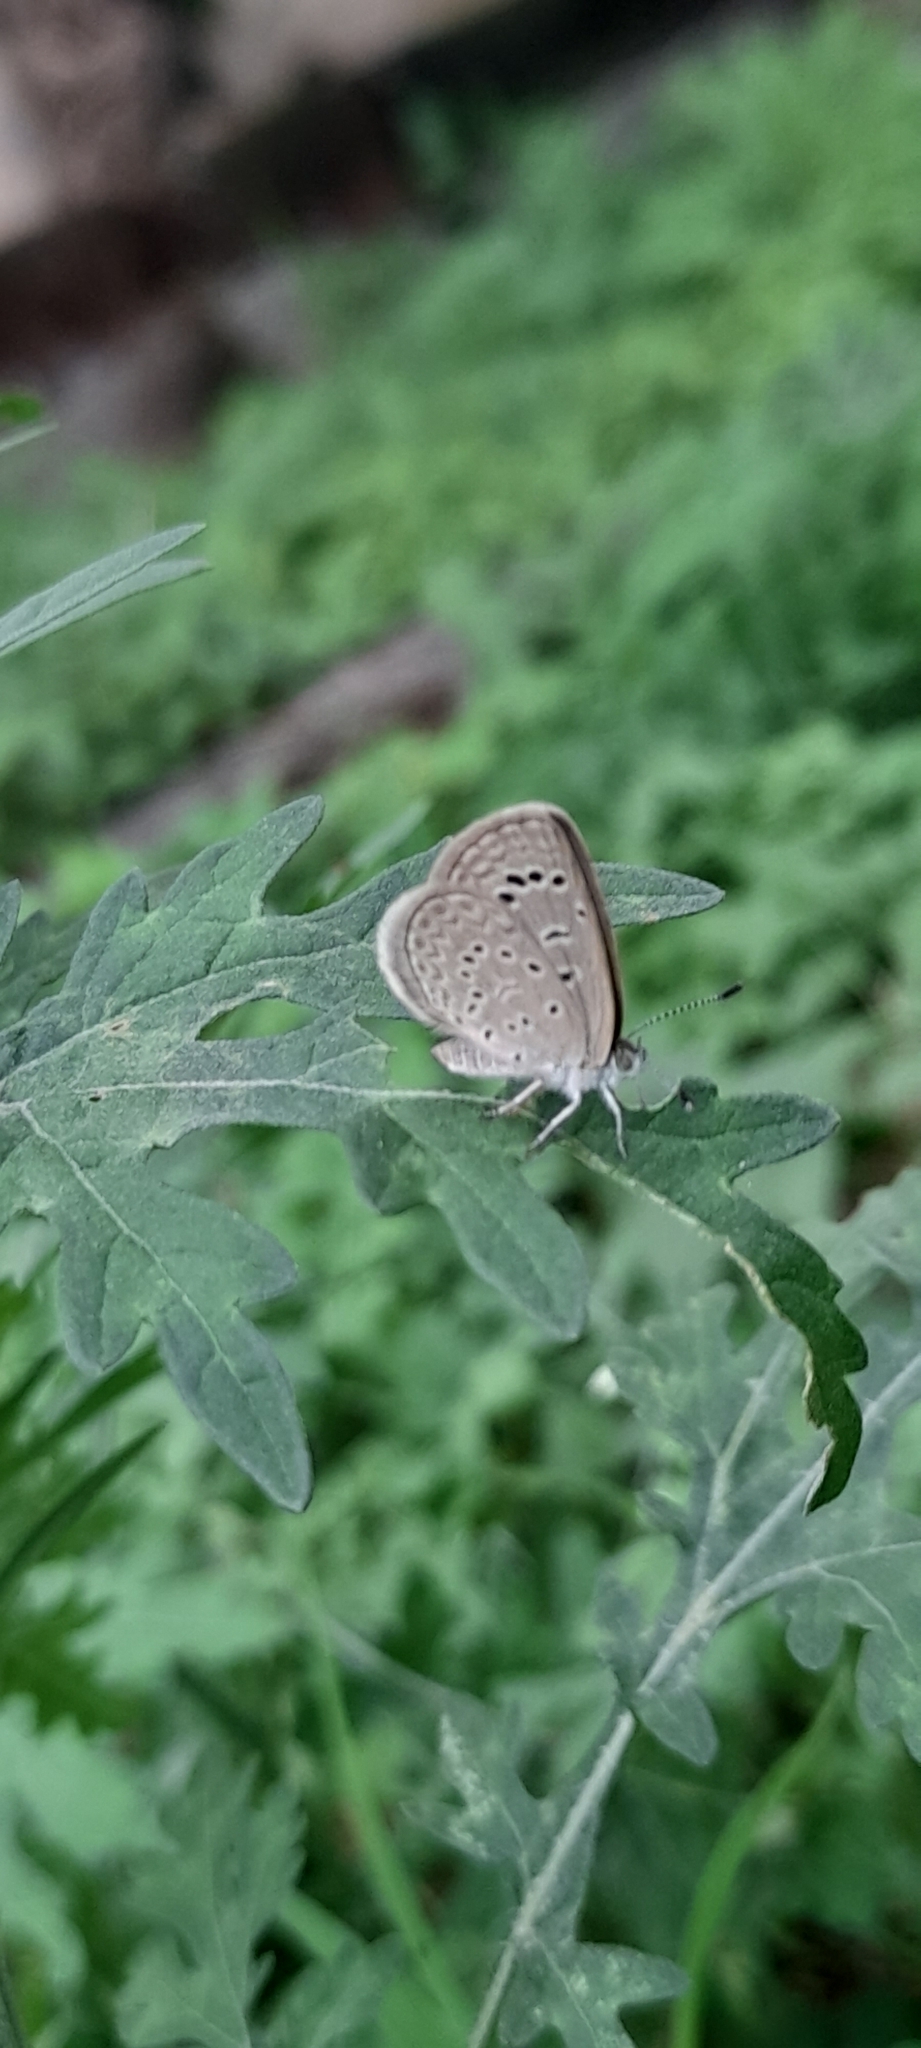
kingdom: Animalia
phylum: Arthropoda
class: Insecta
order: Lepidoptera
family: Lycaenidae
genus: Zizeeria
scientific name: Zizeeria karsandra
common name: Dark grass blue
